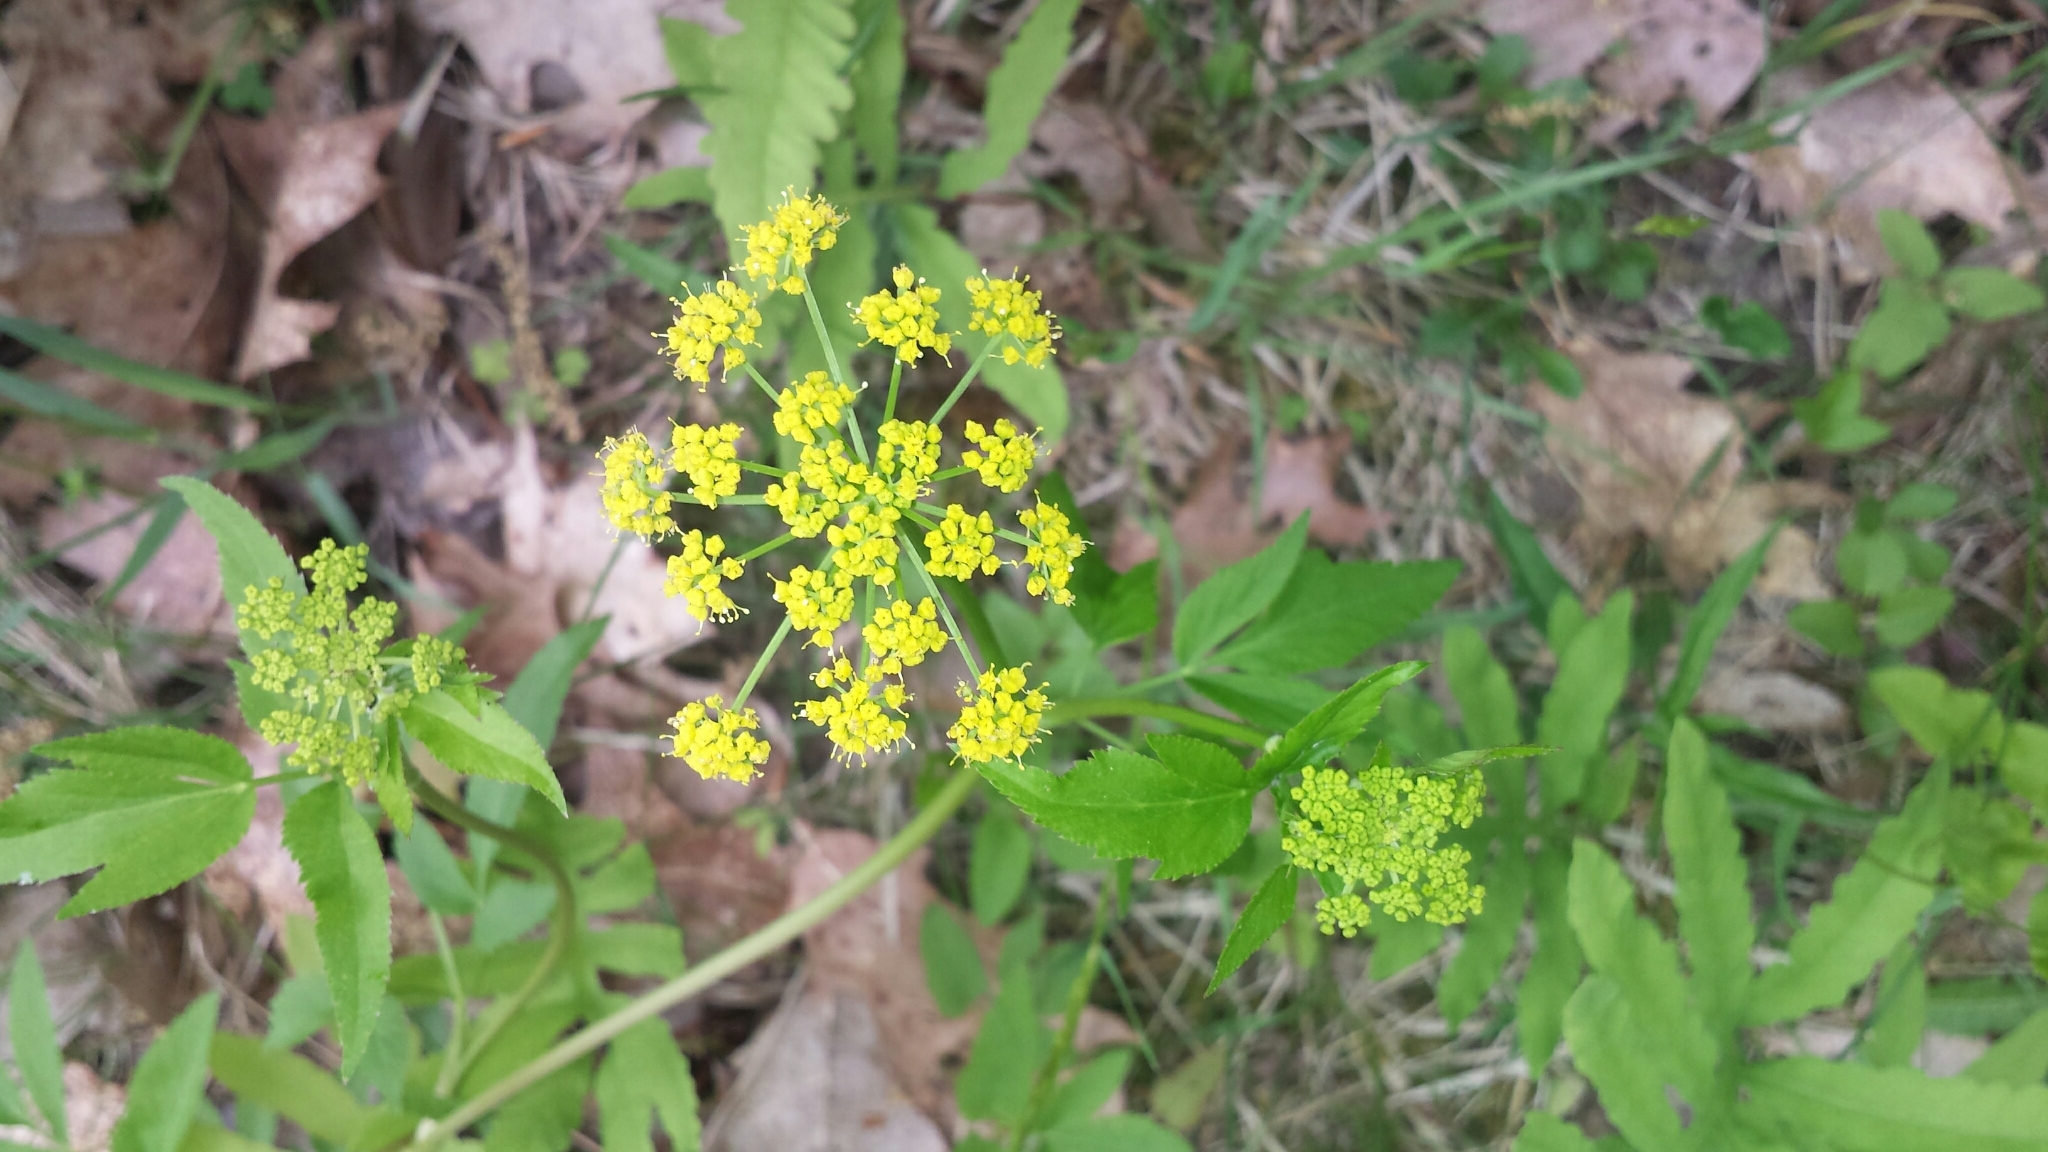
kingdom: Plantae
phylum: Tracheophyta
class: Magnoliopsida
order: Apiales
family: Apiaceae
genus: Zizia
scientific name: Zizia aurea
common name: Golden alexanders
